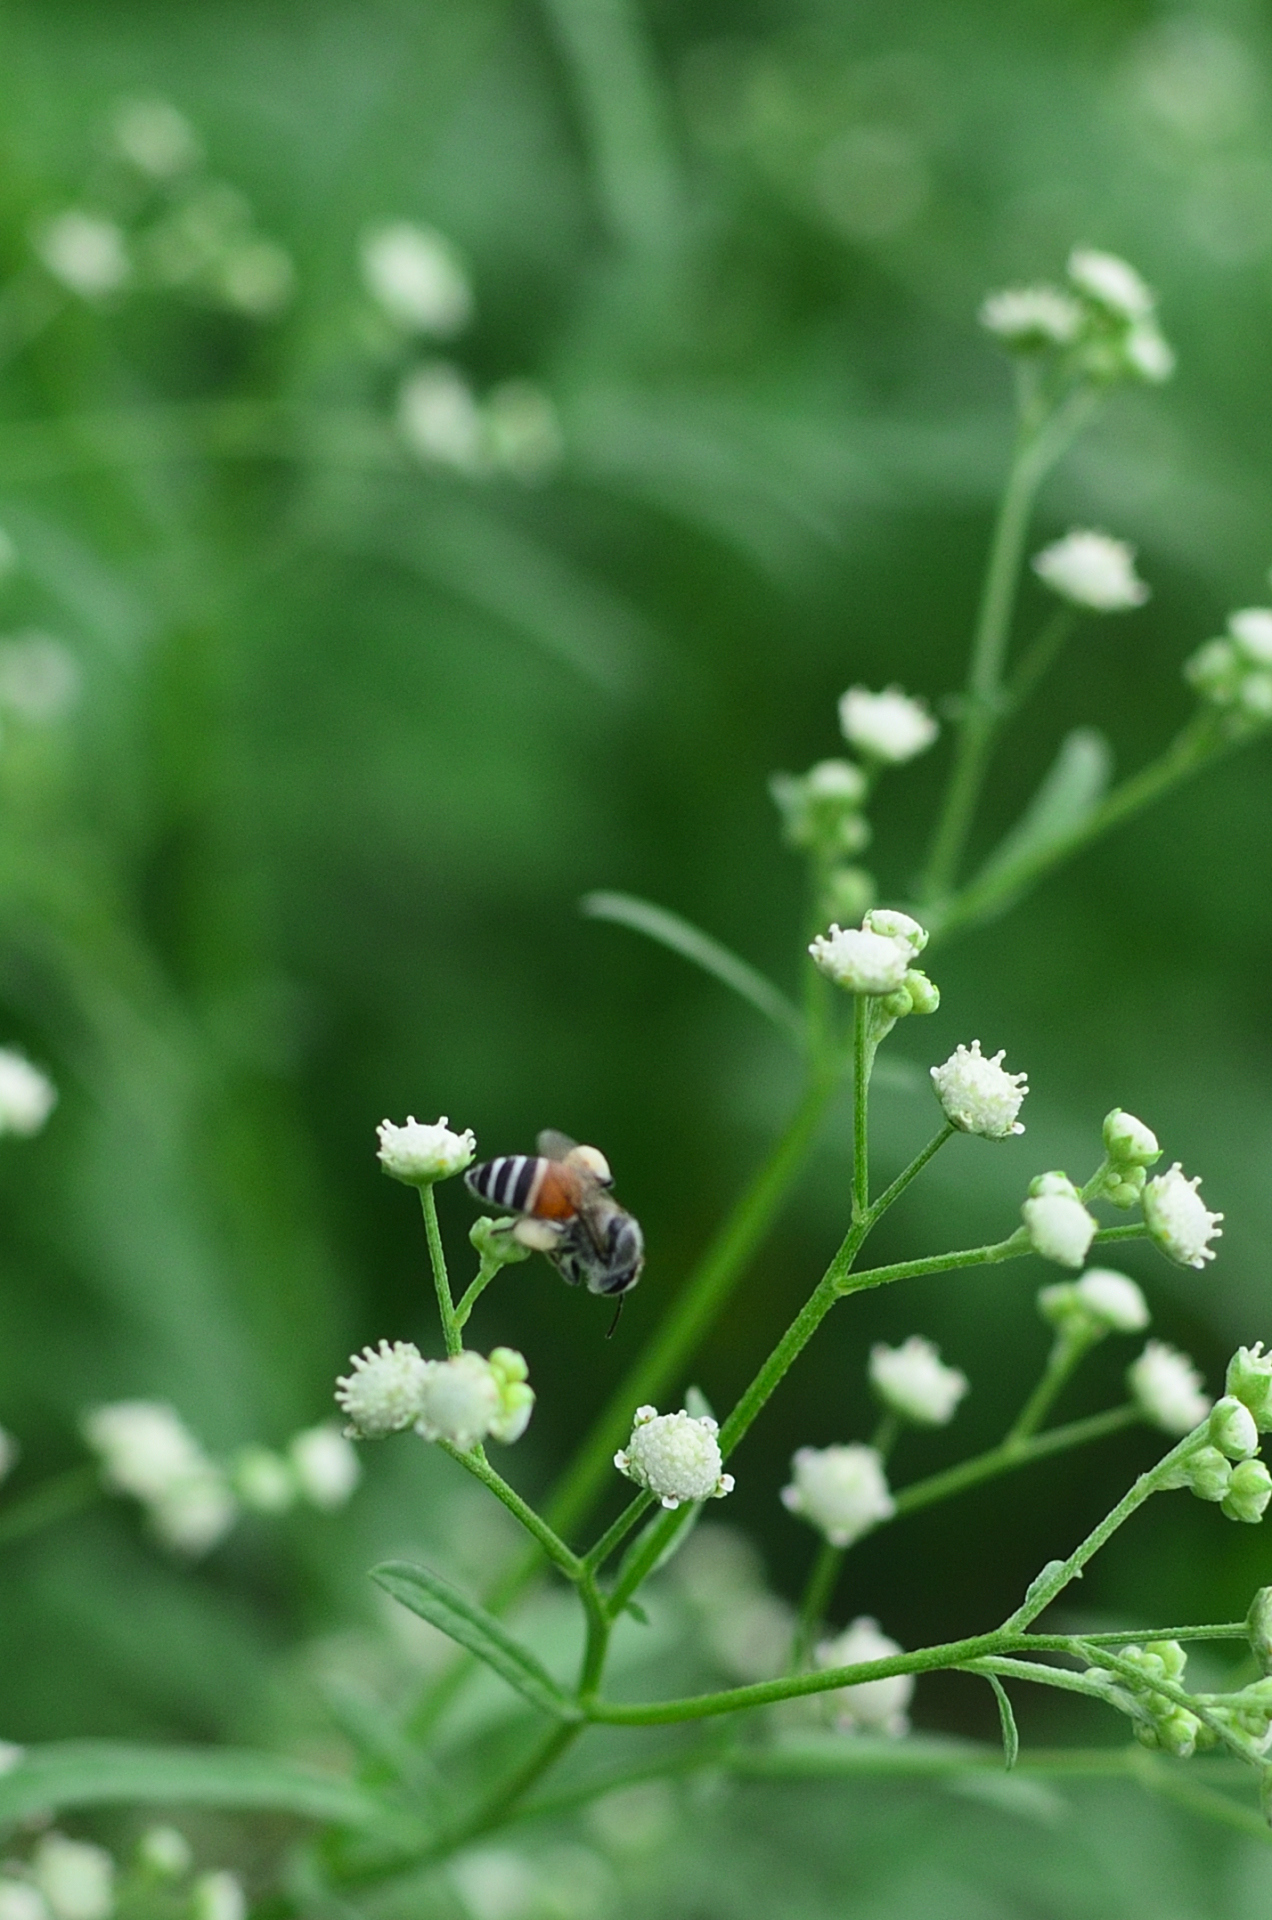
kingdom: Animalia
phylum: Arthropoda
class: Insecta
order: Hymenoptera
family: Apidae
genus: Apis
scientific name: Apis florea
